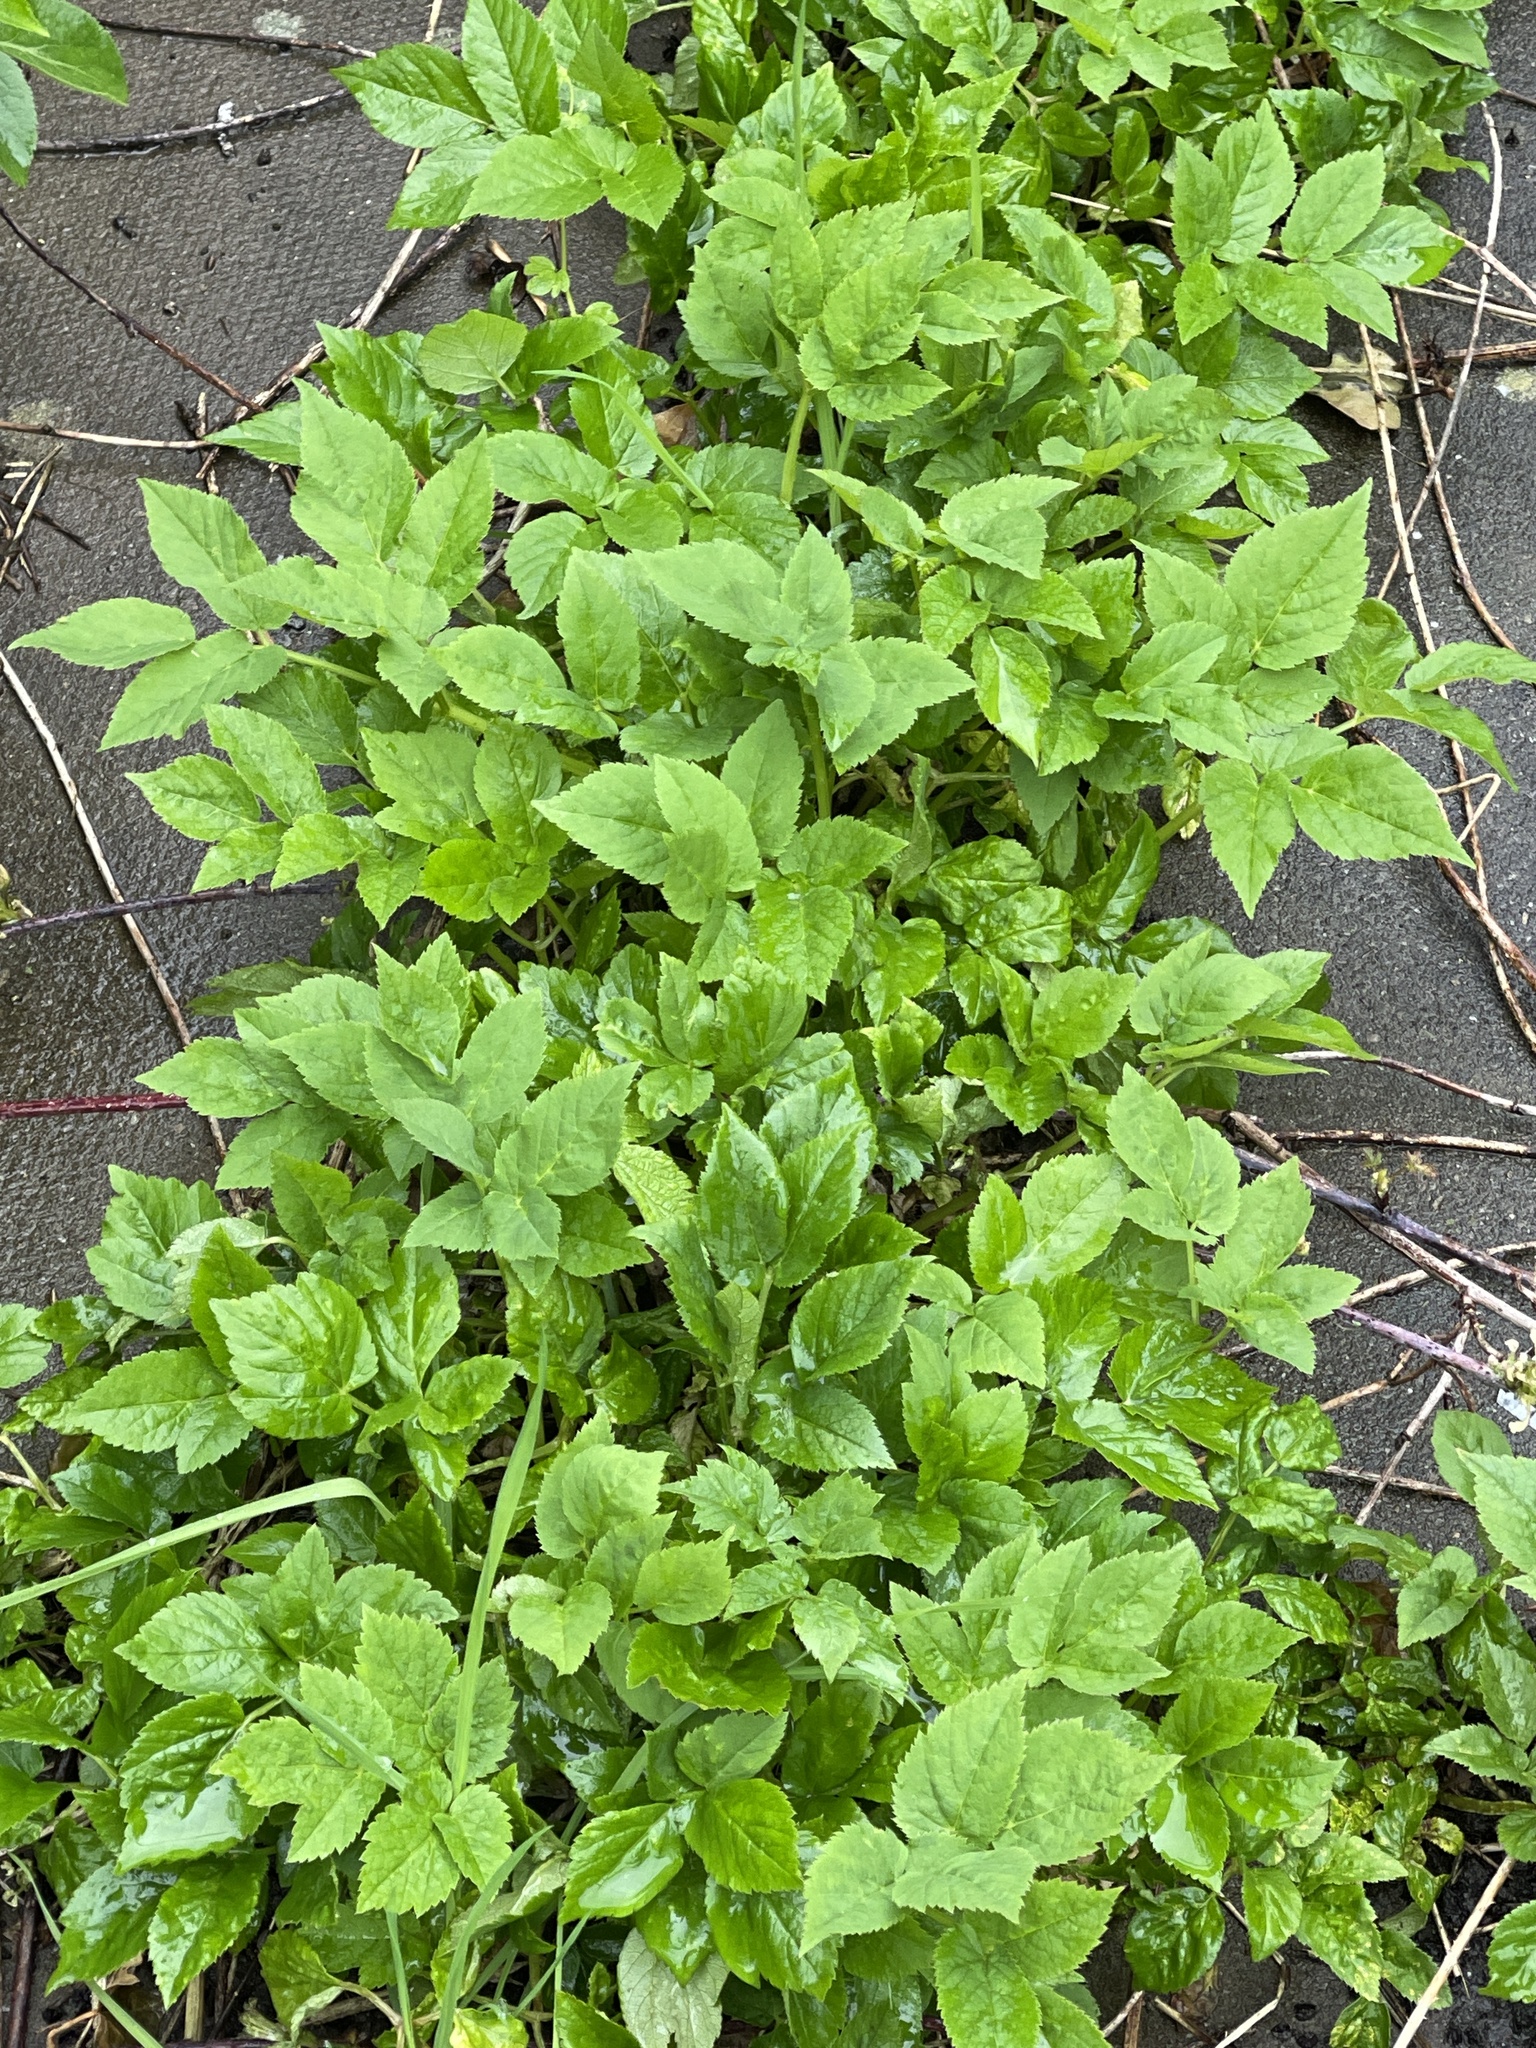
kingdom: Plantae
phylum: Tracheophyta
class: Magnoliopsida
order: Apiales
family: Apiaceae
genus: Aegopodium
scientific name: Aegopodium podagraria
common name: Ground-elder
